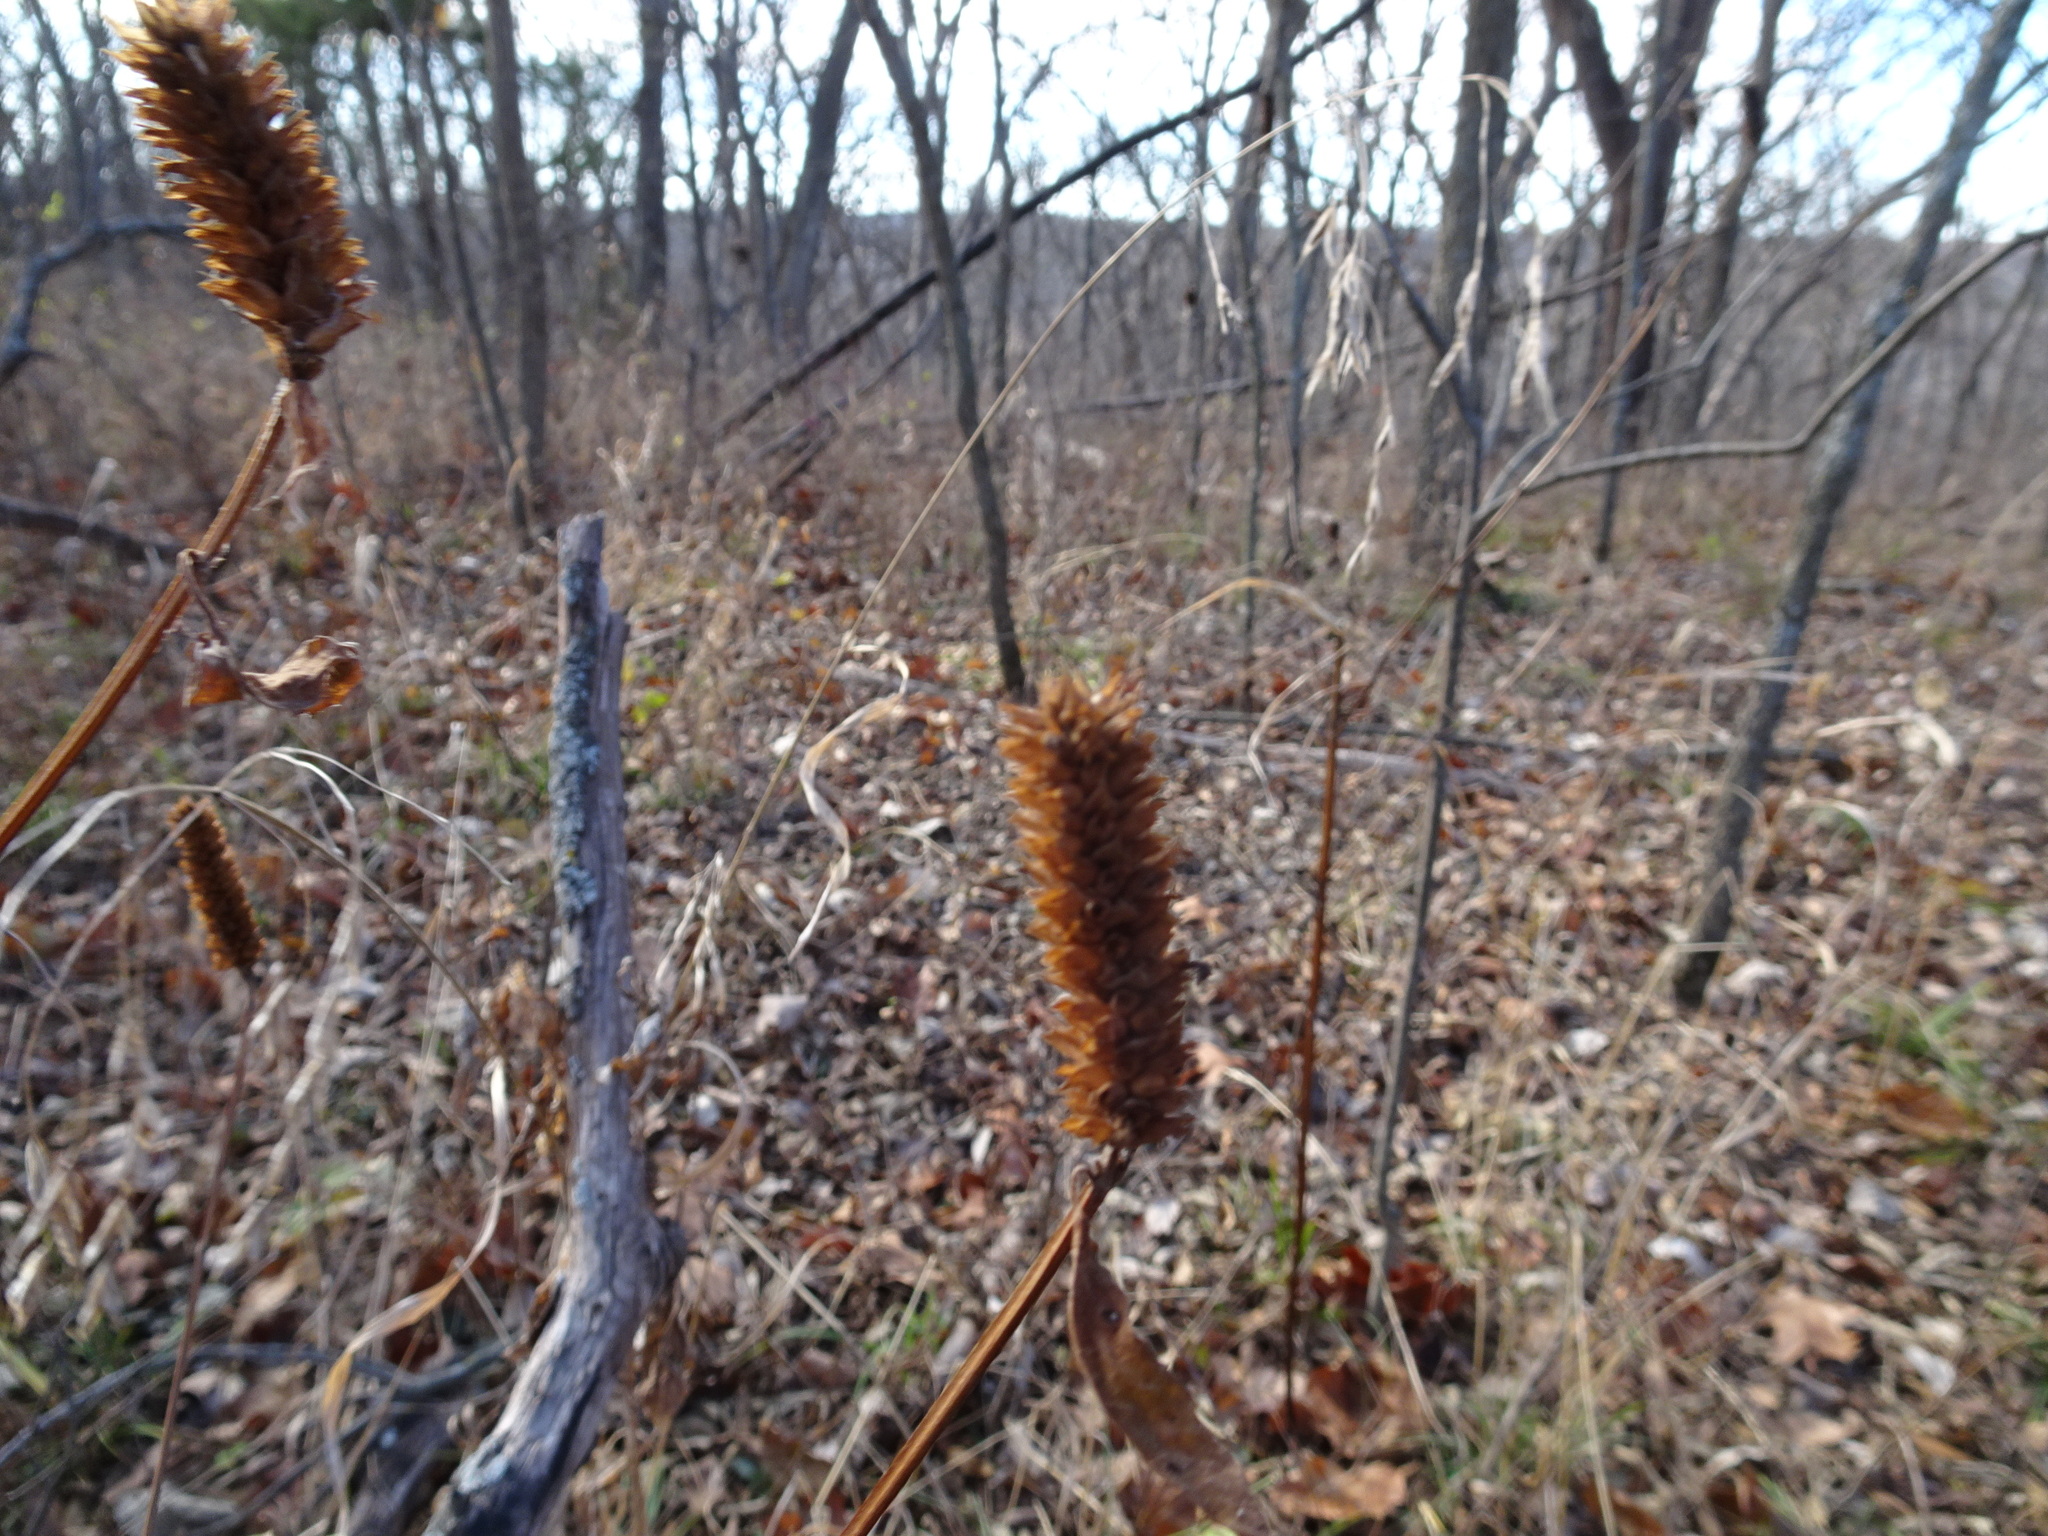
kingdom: Plantae
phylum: Tracheophyta
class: Magnoliopsida
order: Lamiales
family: Lamiaceae
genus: Agastache
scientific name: Agastache nepetoides
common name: Catnip giant hyssop
